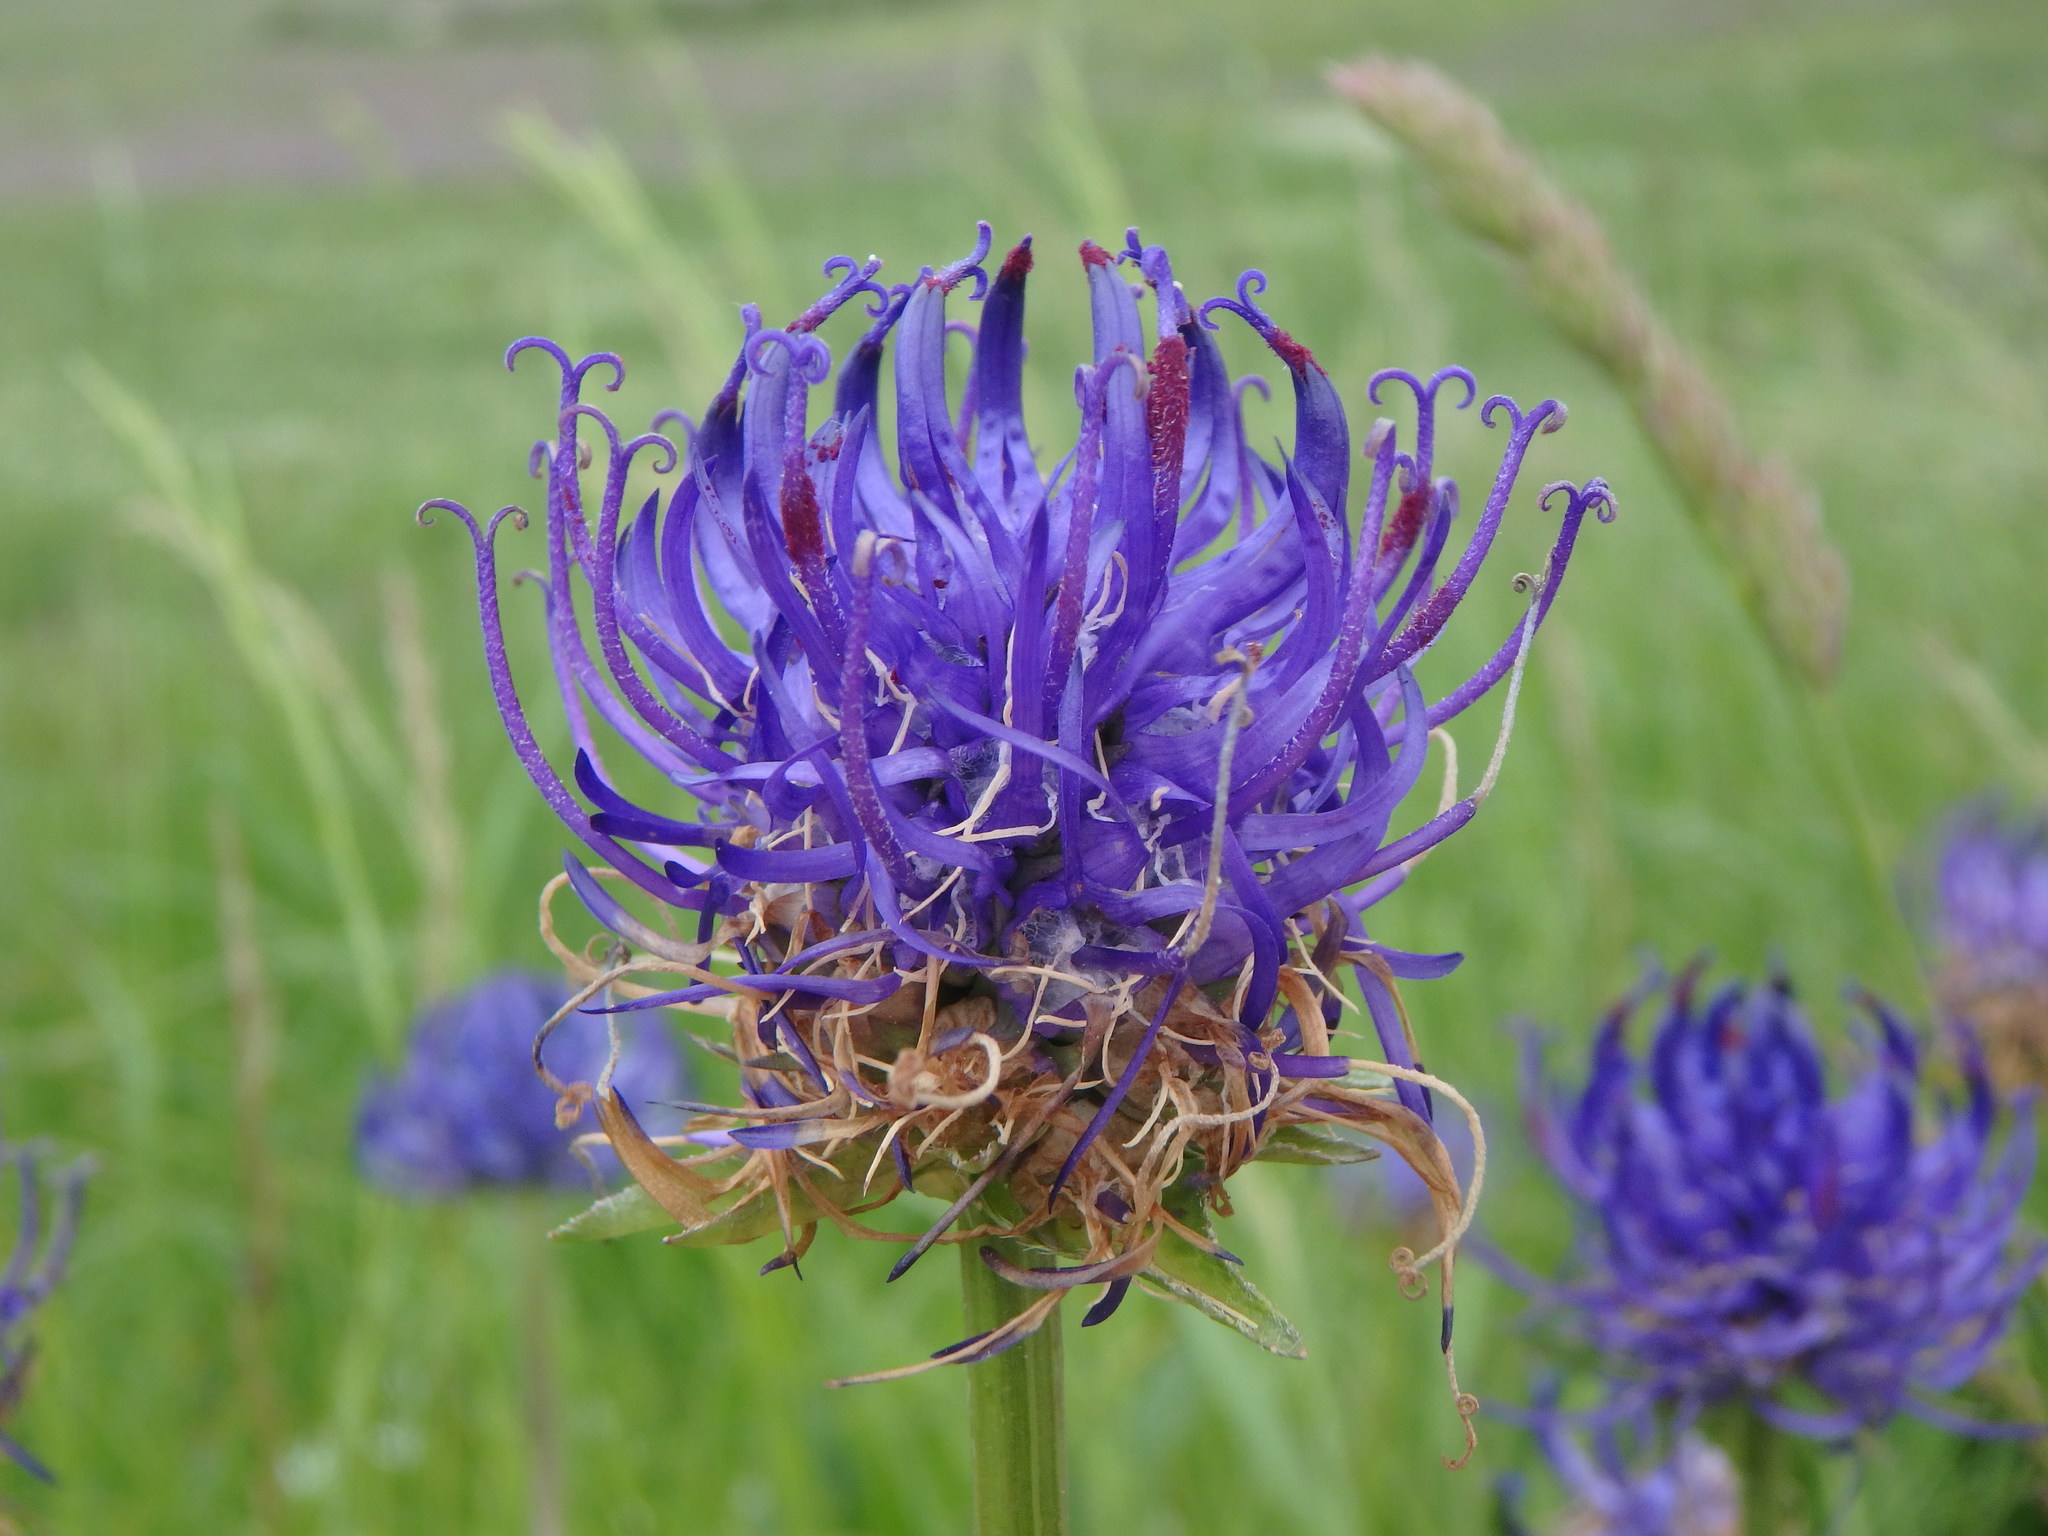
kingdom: Plantae
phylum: Tracheophyta
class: Magnoliopsida
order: Asterales
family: Campanulaceae
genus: Phyteuma
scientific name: Phyteuma orbiculare
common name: Round-headed rampion
